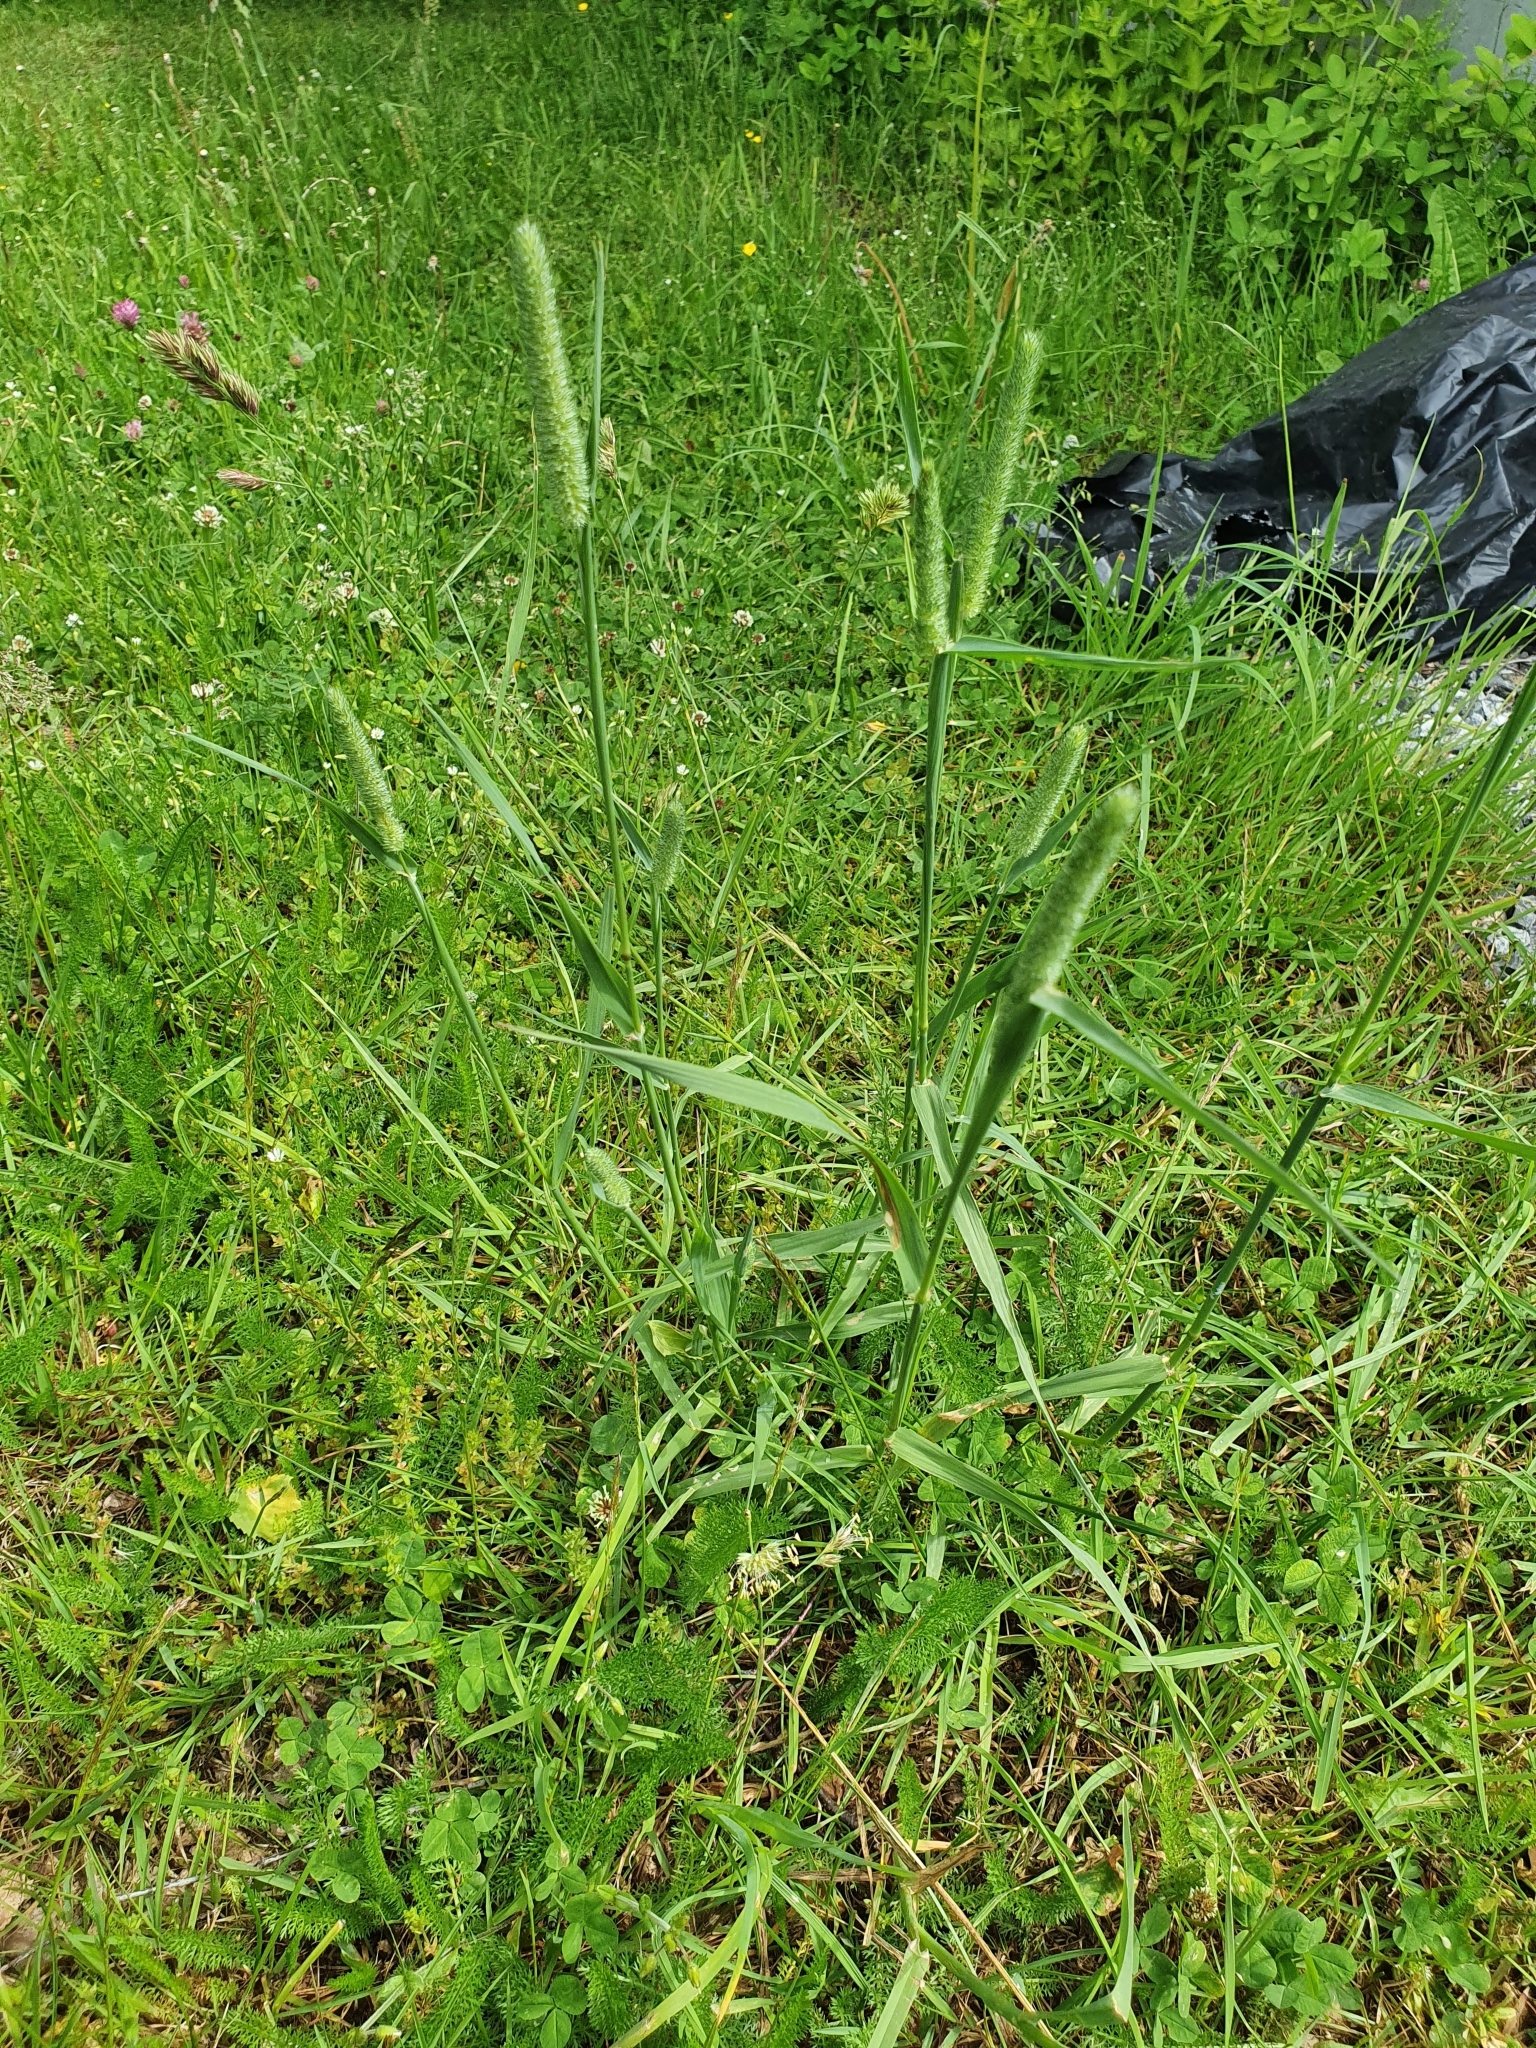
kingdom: Plantae
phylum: Tracheophyta
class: Liliopsida
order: Poales
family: Poaceae
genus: Phleum
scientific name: Phleum pratense
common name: Timothy grass
